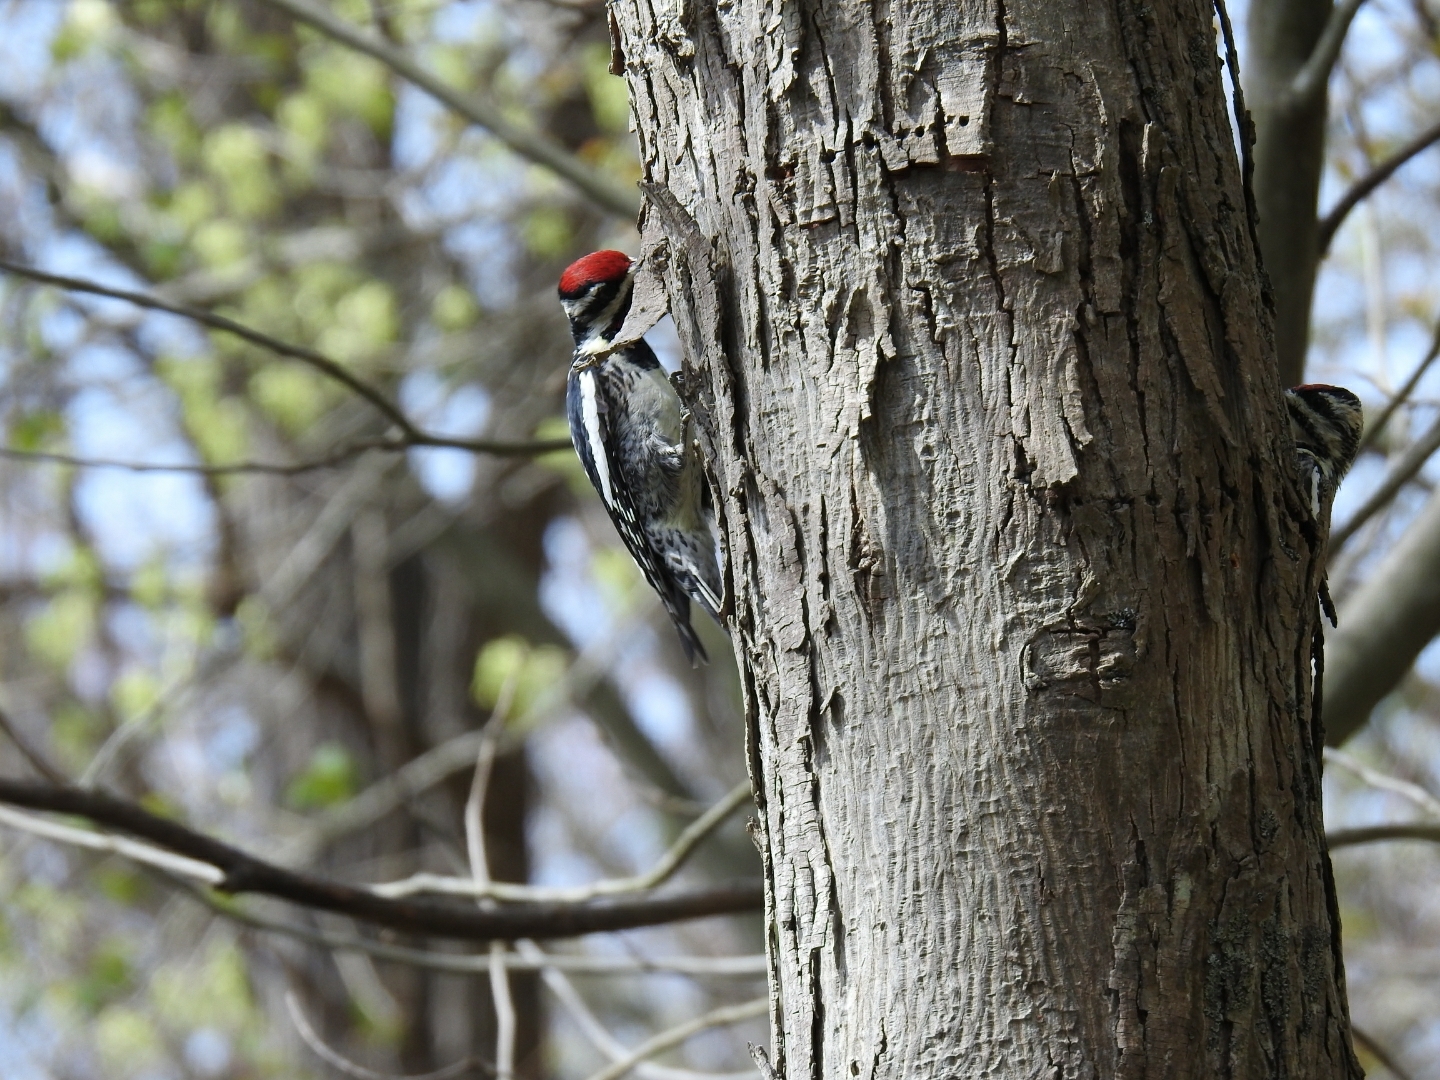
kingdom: Animalia
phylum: Chordata
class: Aves
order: Piciformes
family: Picidae
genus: Sphyrapicus
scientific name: Sphyrapicus varius
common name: Yellow-bellied sapsucker
